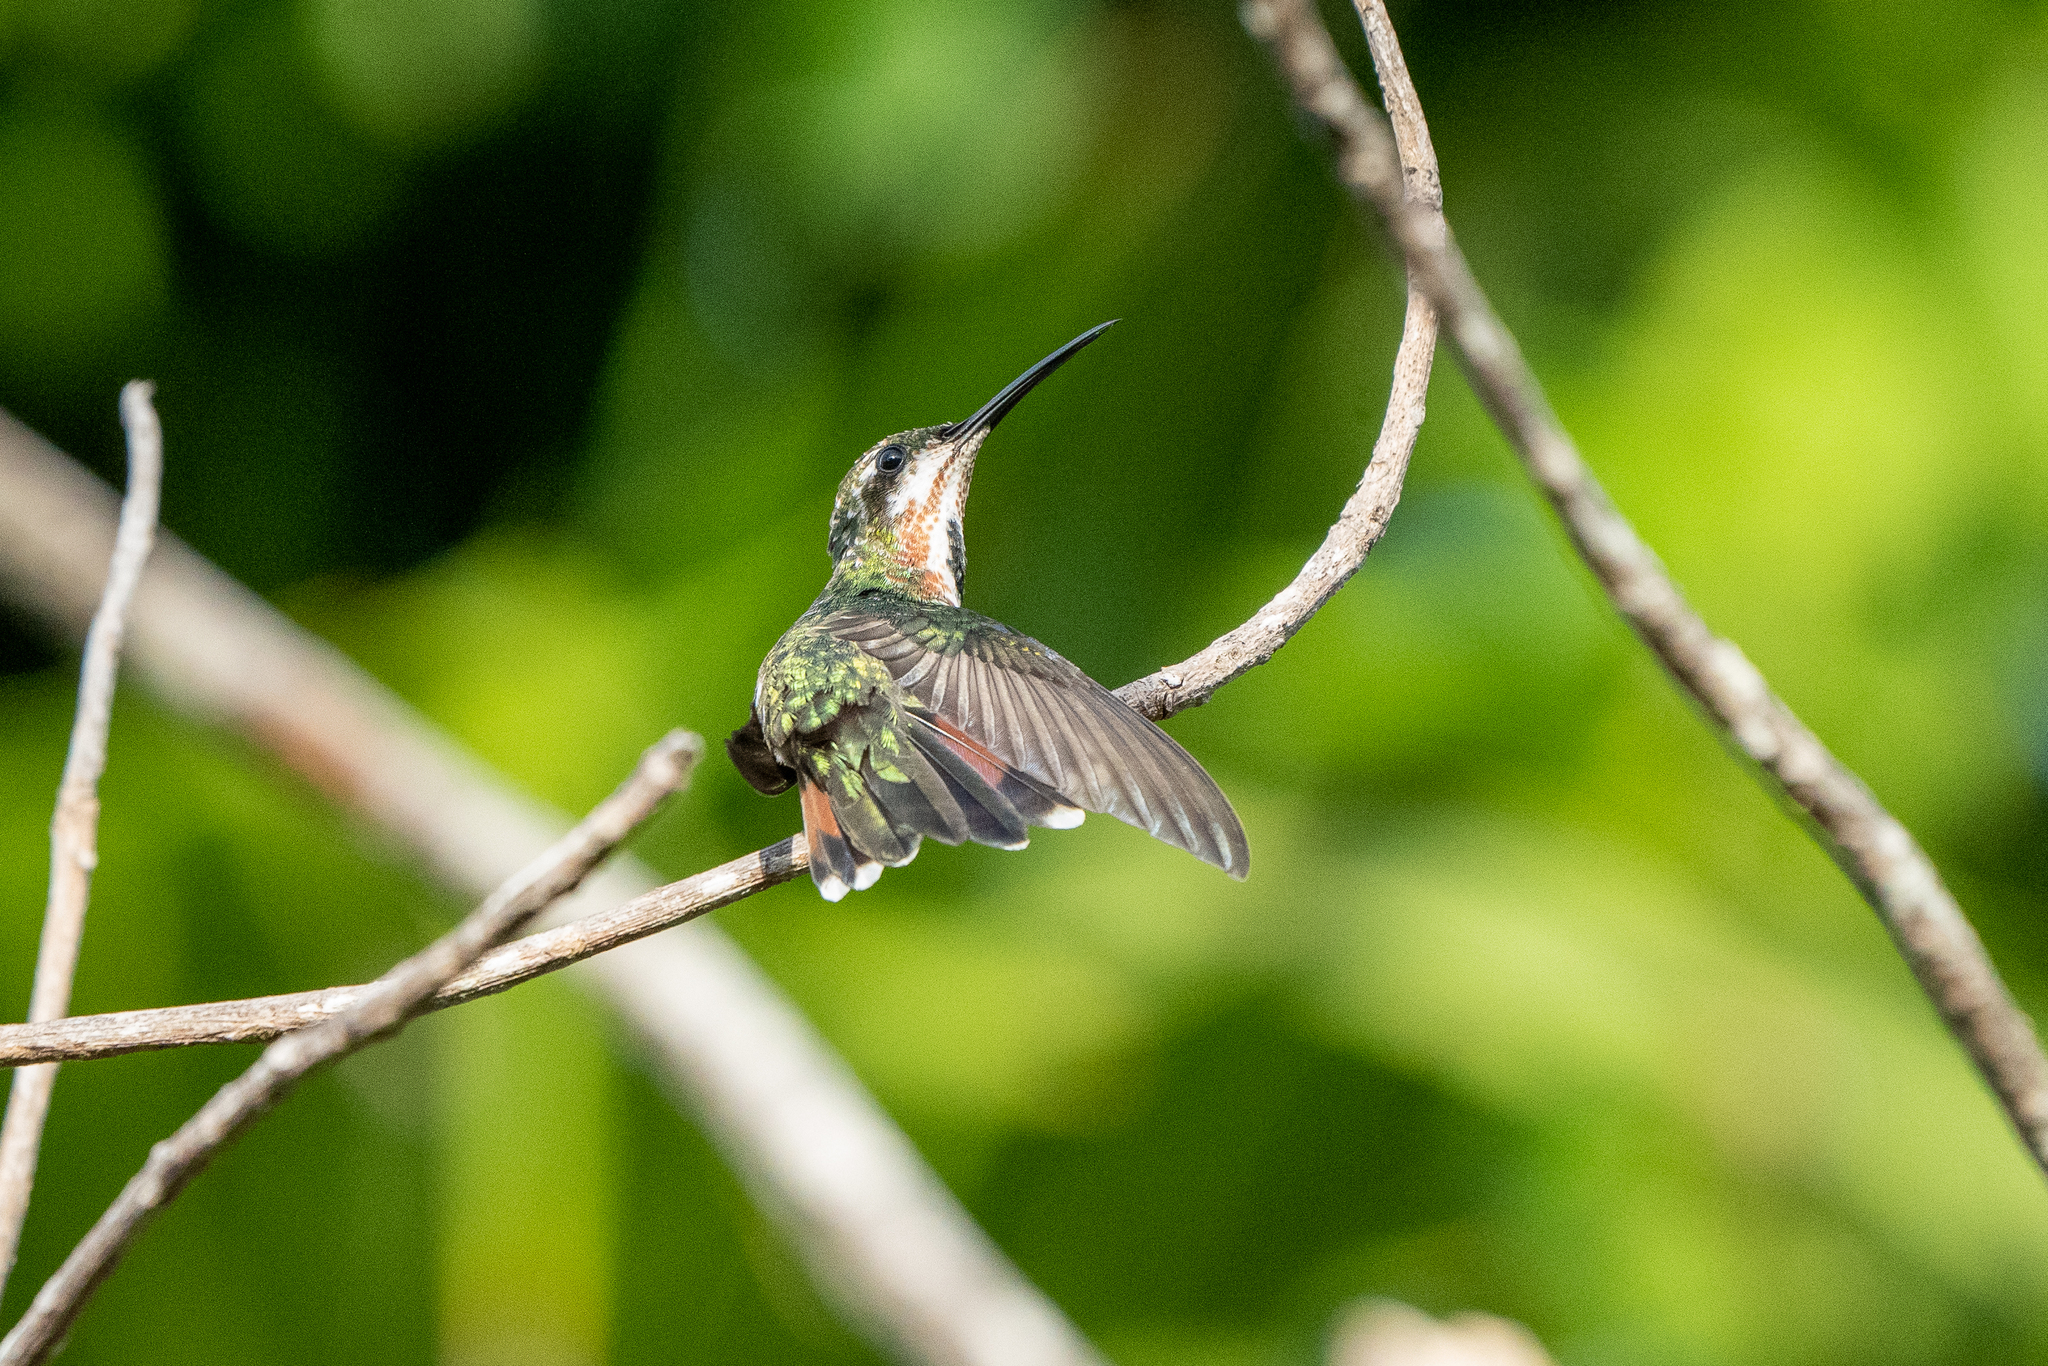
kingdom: Animalia
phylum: Chordata
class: Aves
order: Apodiformes
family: Trochilidae
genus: Anthracothorax
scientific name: Anthracothorax prevostii
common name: Green-breasted mango
